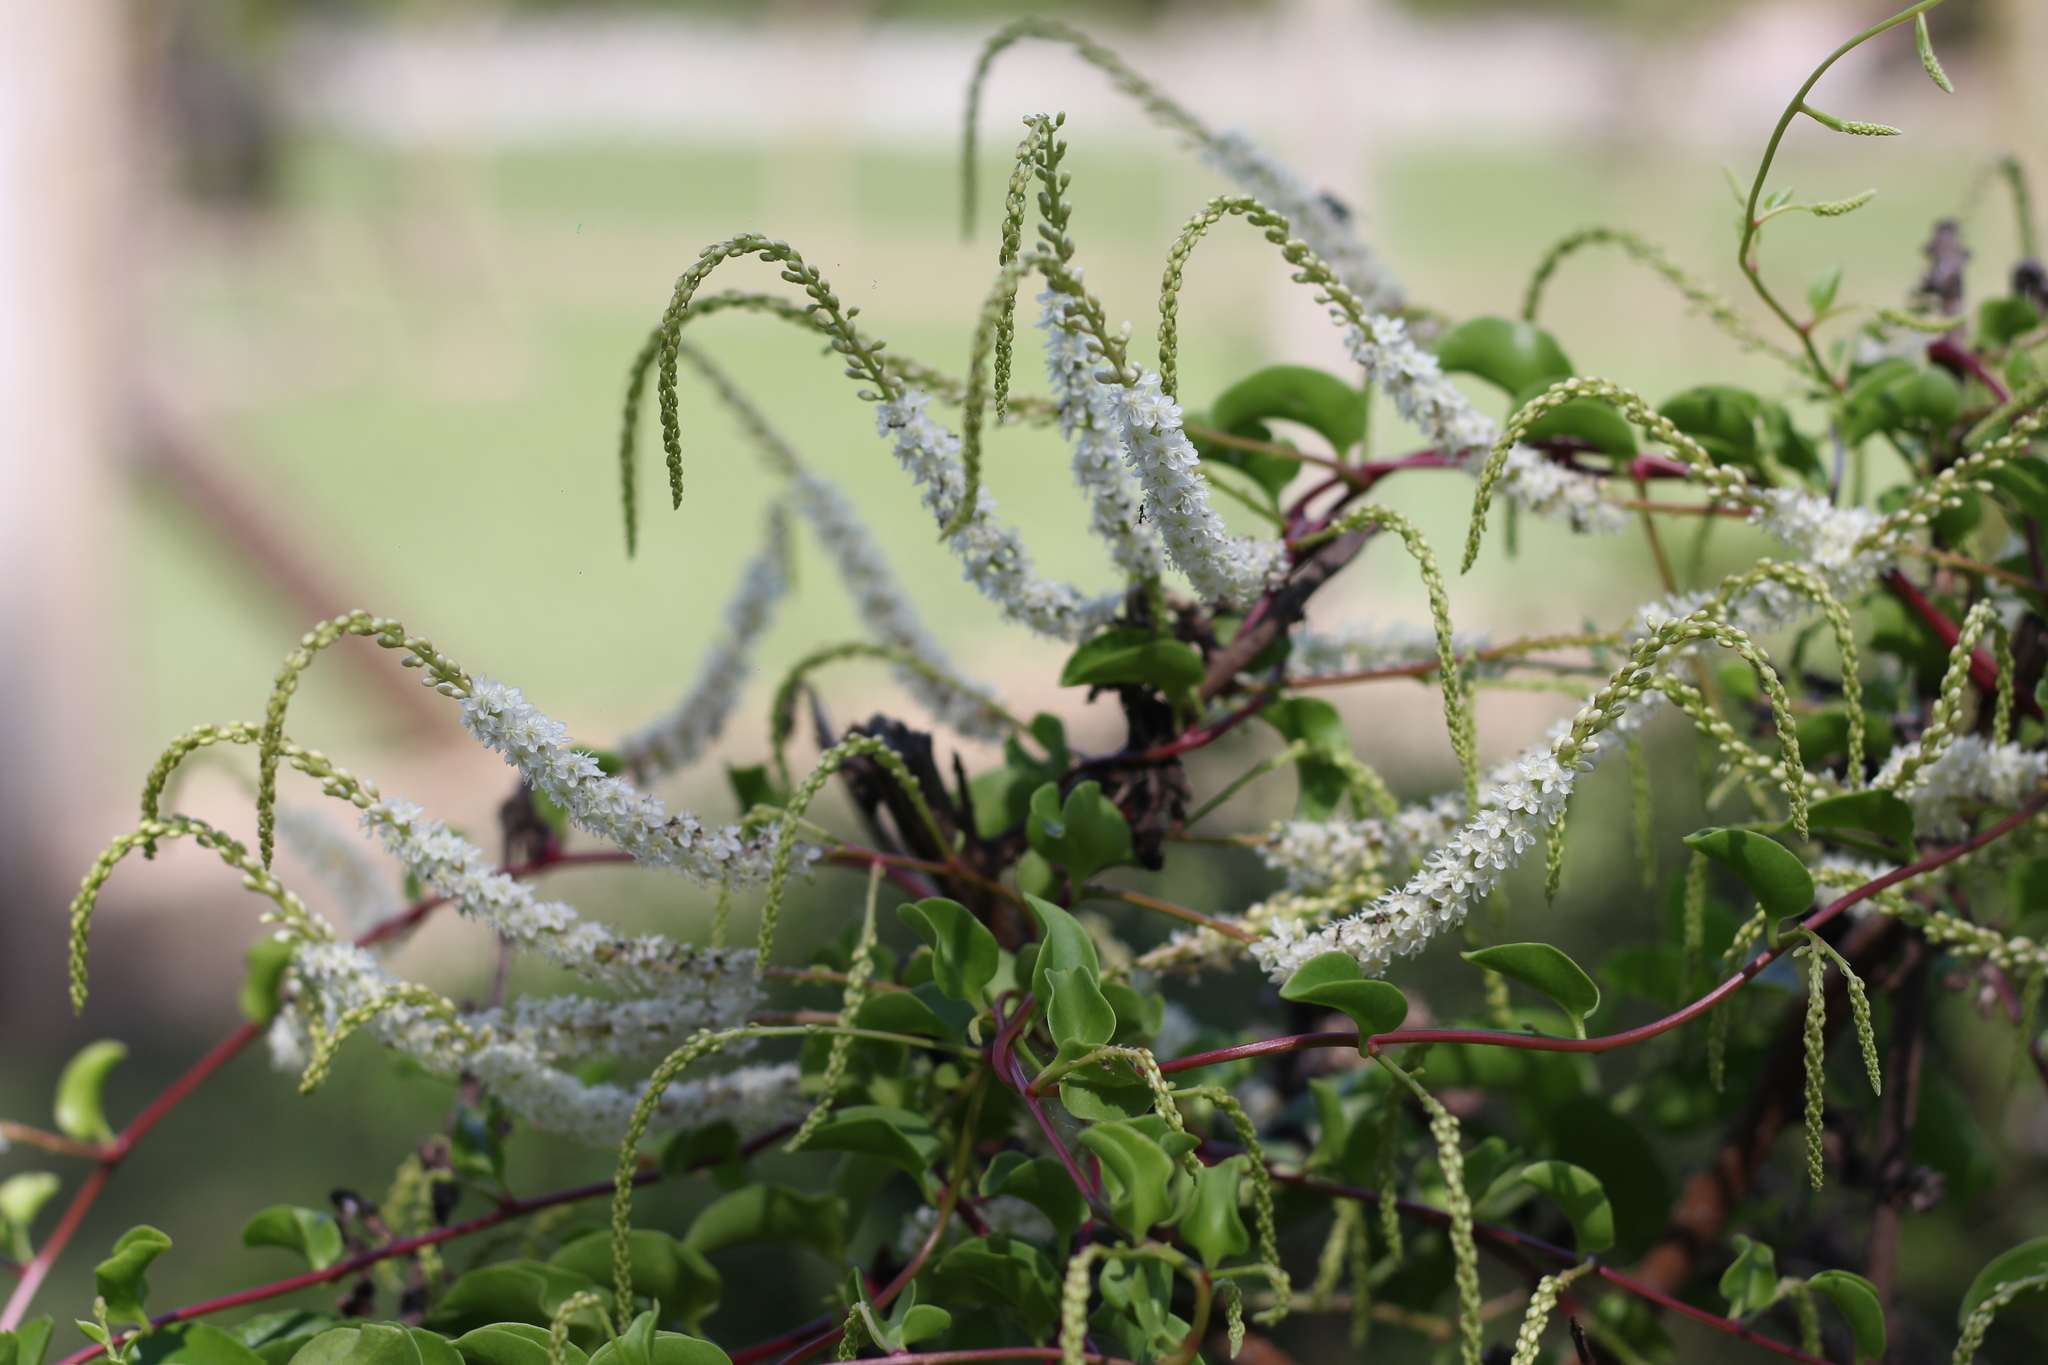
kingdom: Plantae
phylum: Tracheophyta
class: Magnoliopsida
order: Caryophyllales
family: Basellaceae
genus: Anredera
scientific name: Anredera cordifolia
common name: Heartleaf madeiravine
